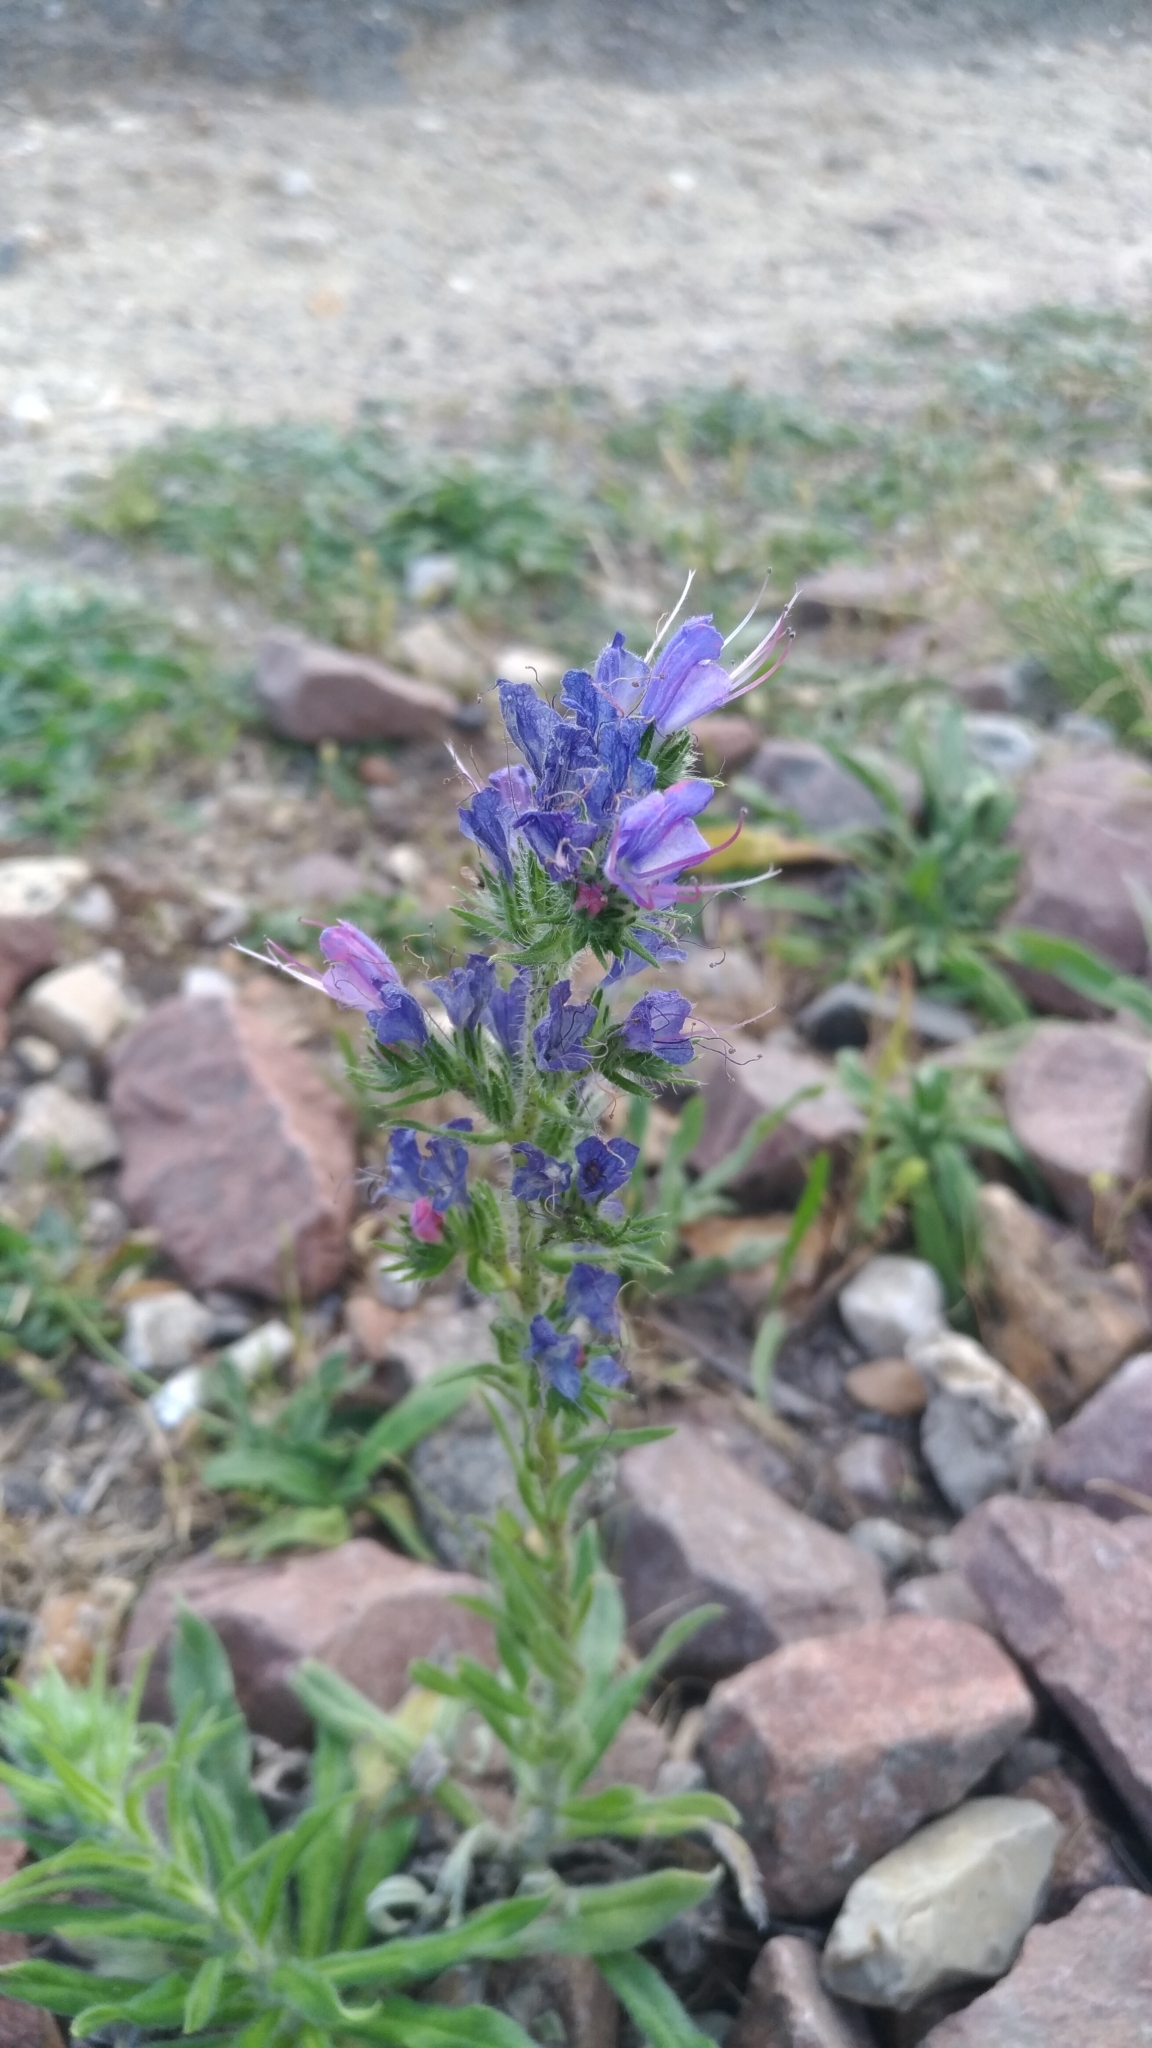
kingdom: Plantae
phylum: Tracheophyta
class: Magnoliopsida
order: Boraginales
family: Boraginaceae
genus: Echium
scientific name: Echium vulgare
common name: Common viper's bugloss
